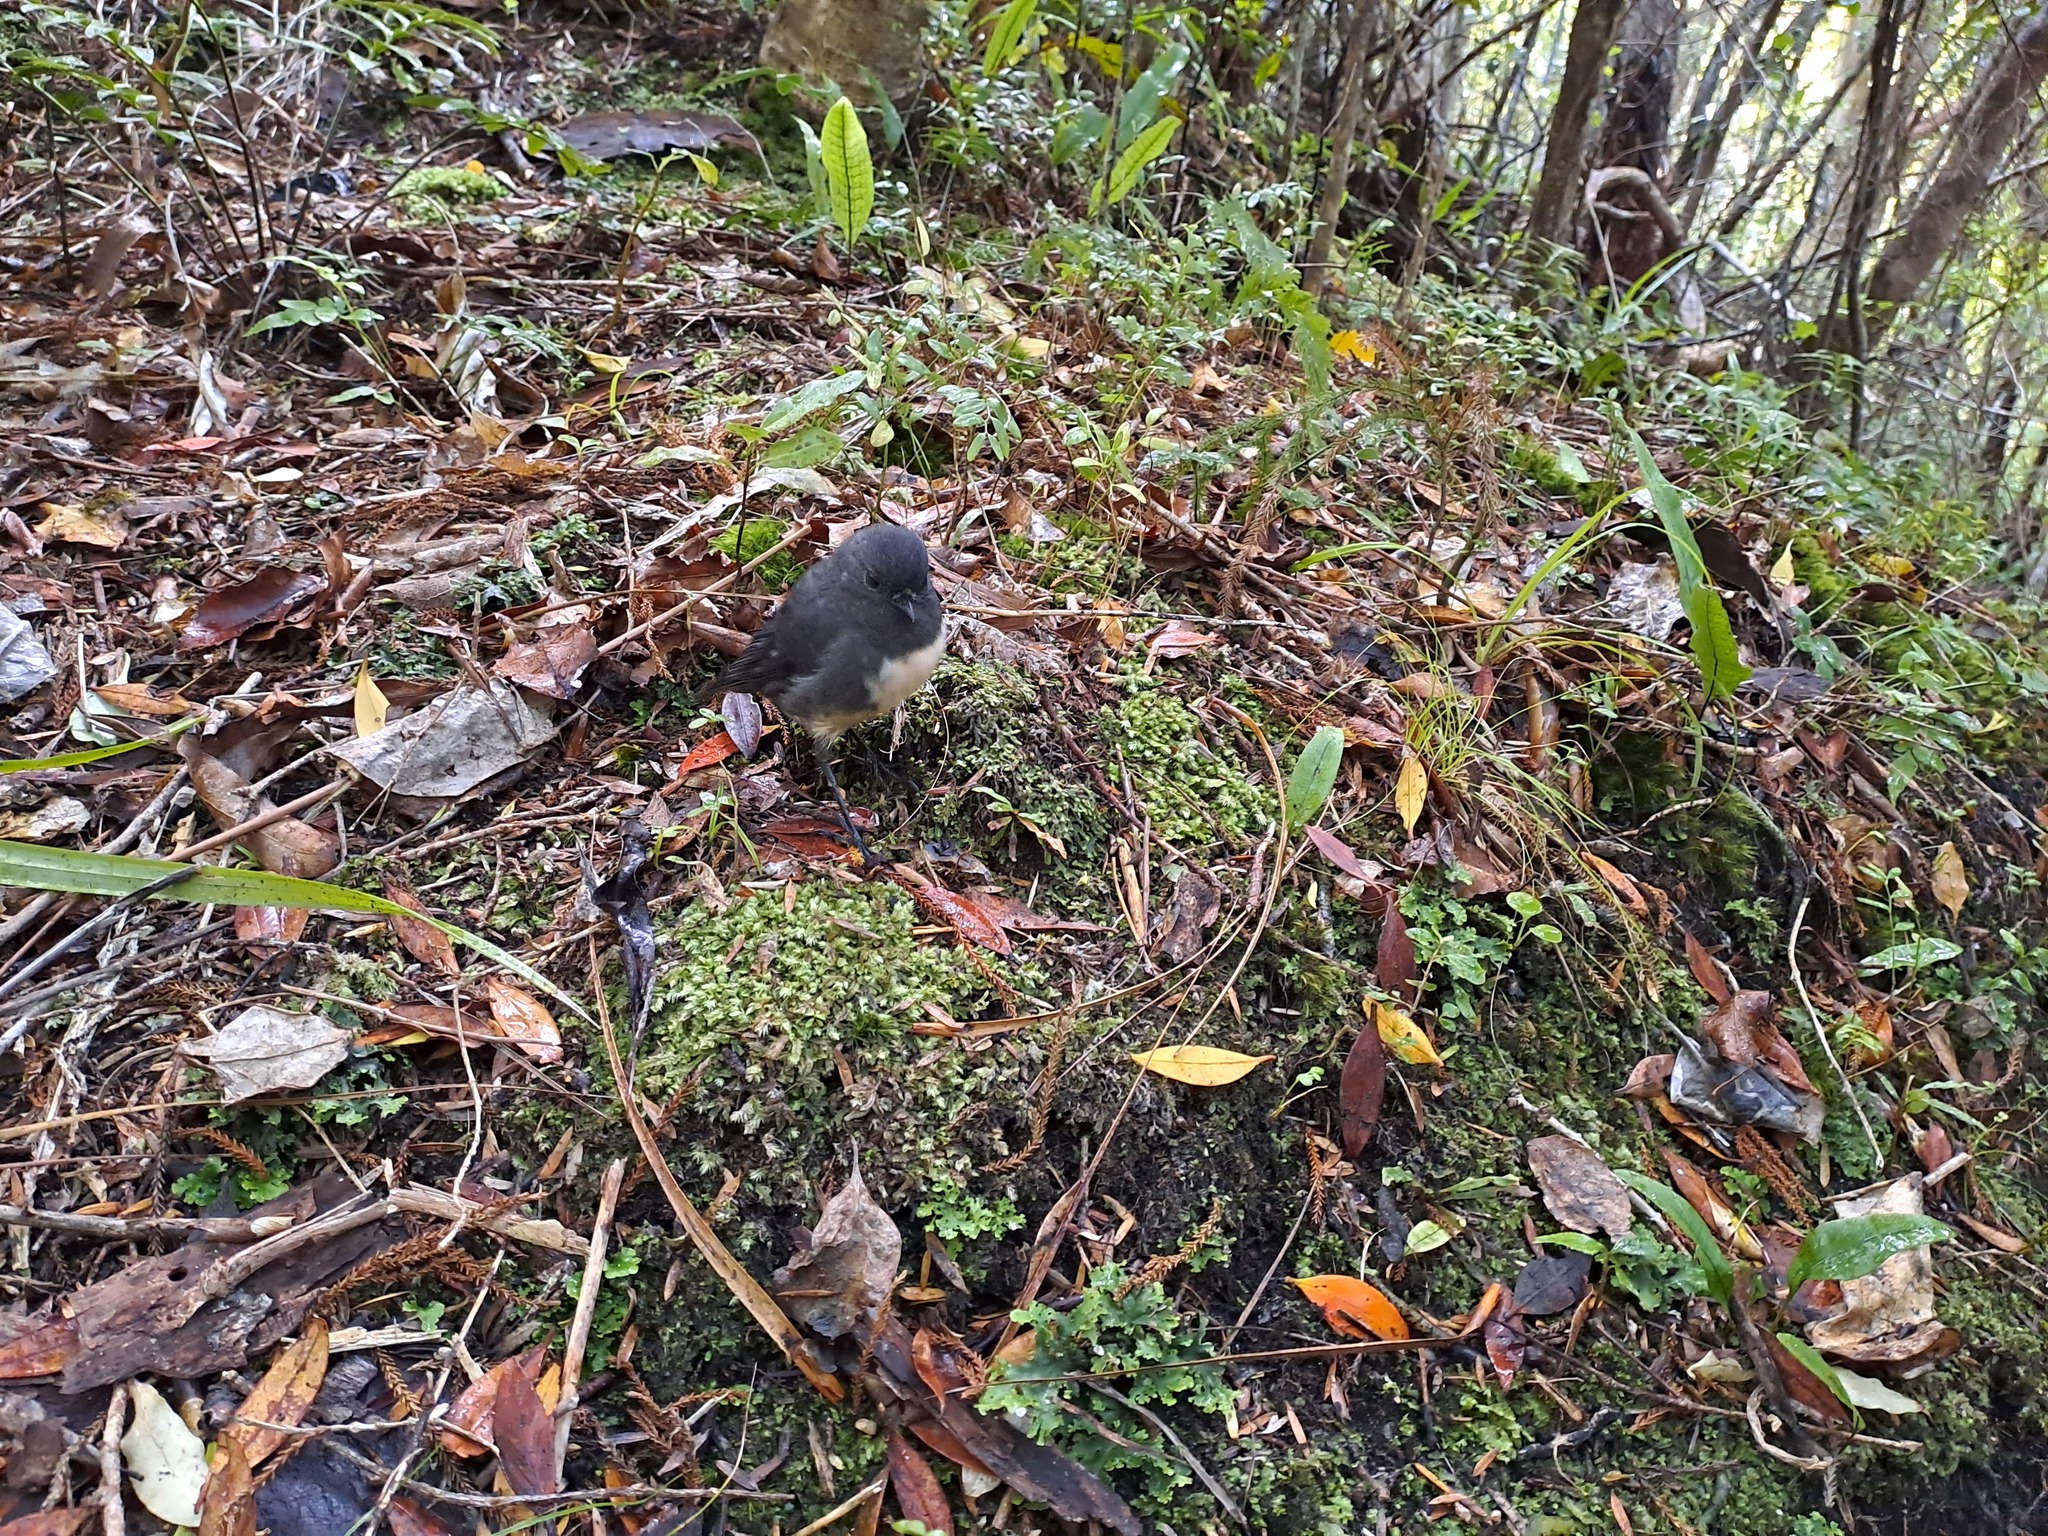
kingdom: Animalia
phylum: Chordata
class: Aves
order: Passeriformes
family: Petroicidae
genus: Petroica
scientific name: Petroica australis
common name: New zealand robin
